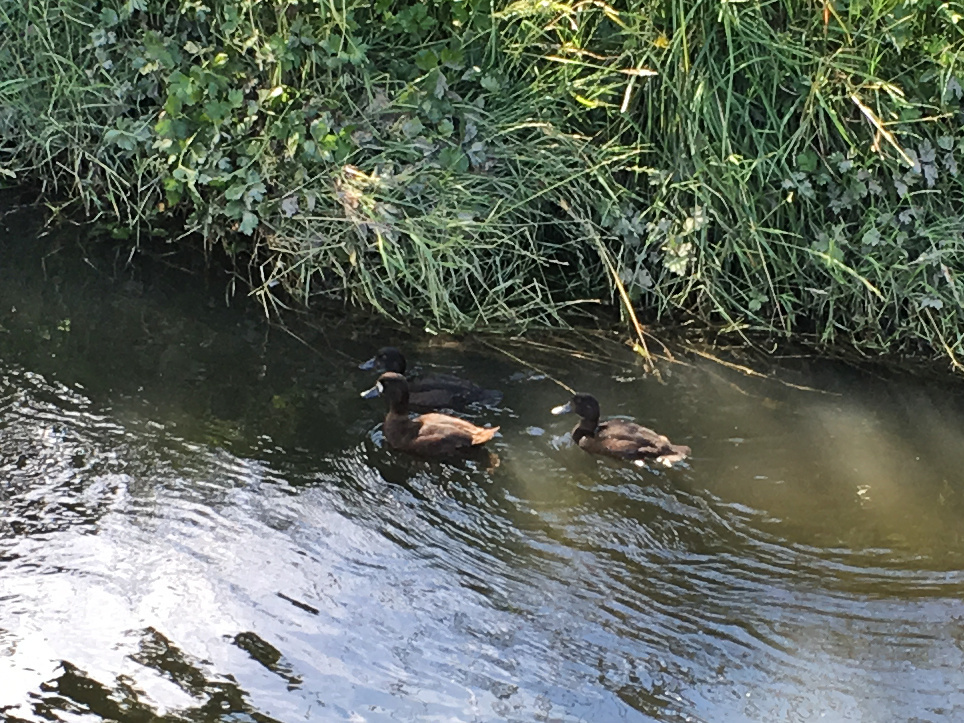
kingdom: Animalia
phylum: Chordata
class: Aves
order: Anseriformes
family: Anatidae
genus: Aythya
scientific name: Aythya novaeseelandiae
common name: New zealand scaup
